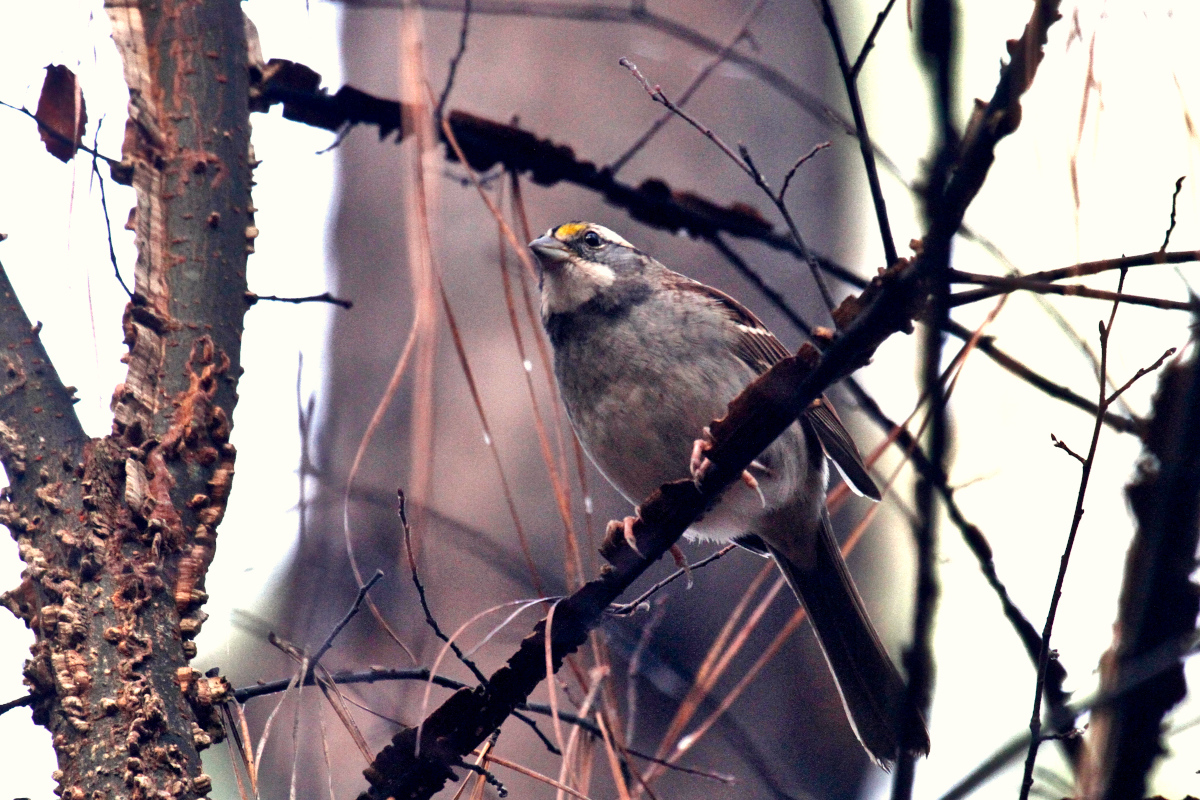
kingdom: Animalia
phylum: Chordata
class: Aves
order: Passeriformes
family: Passerellidae
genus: Zonotrichia
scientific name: Zonotrichia albicollis
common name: White-throated sparrow
